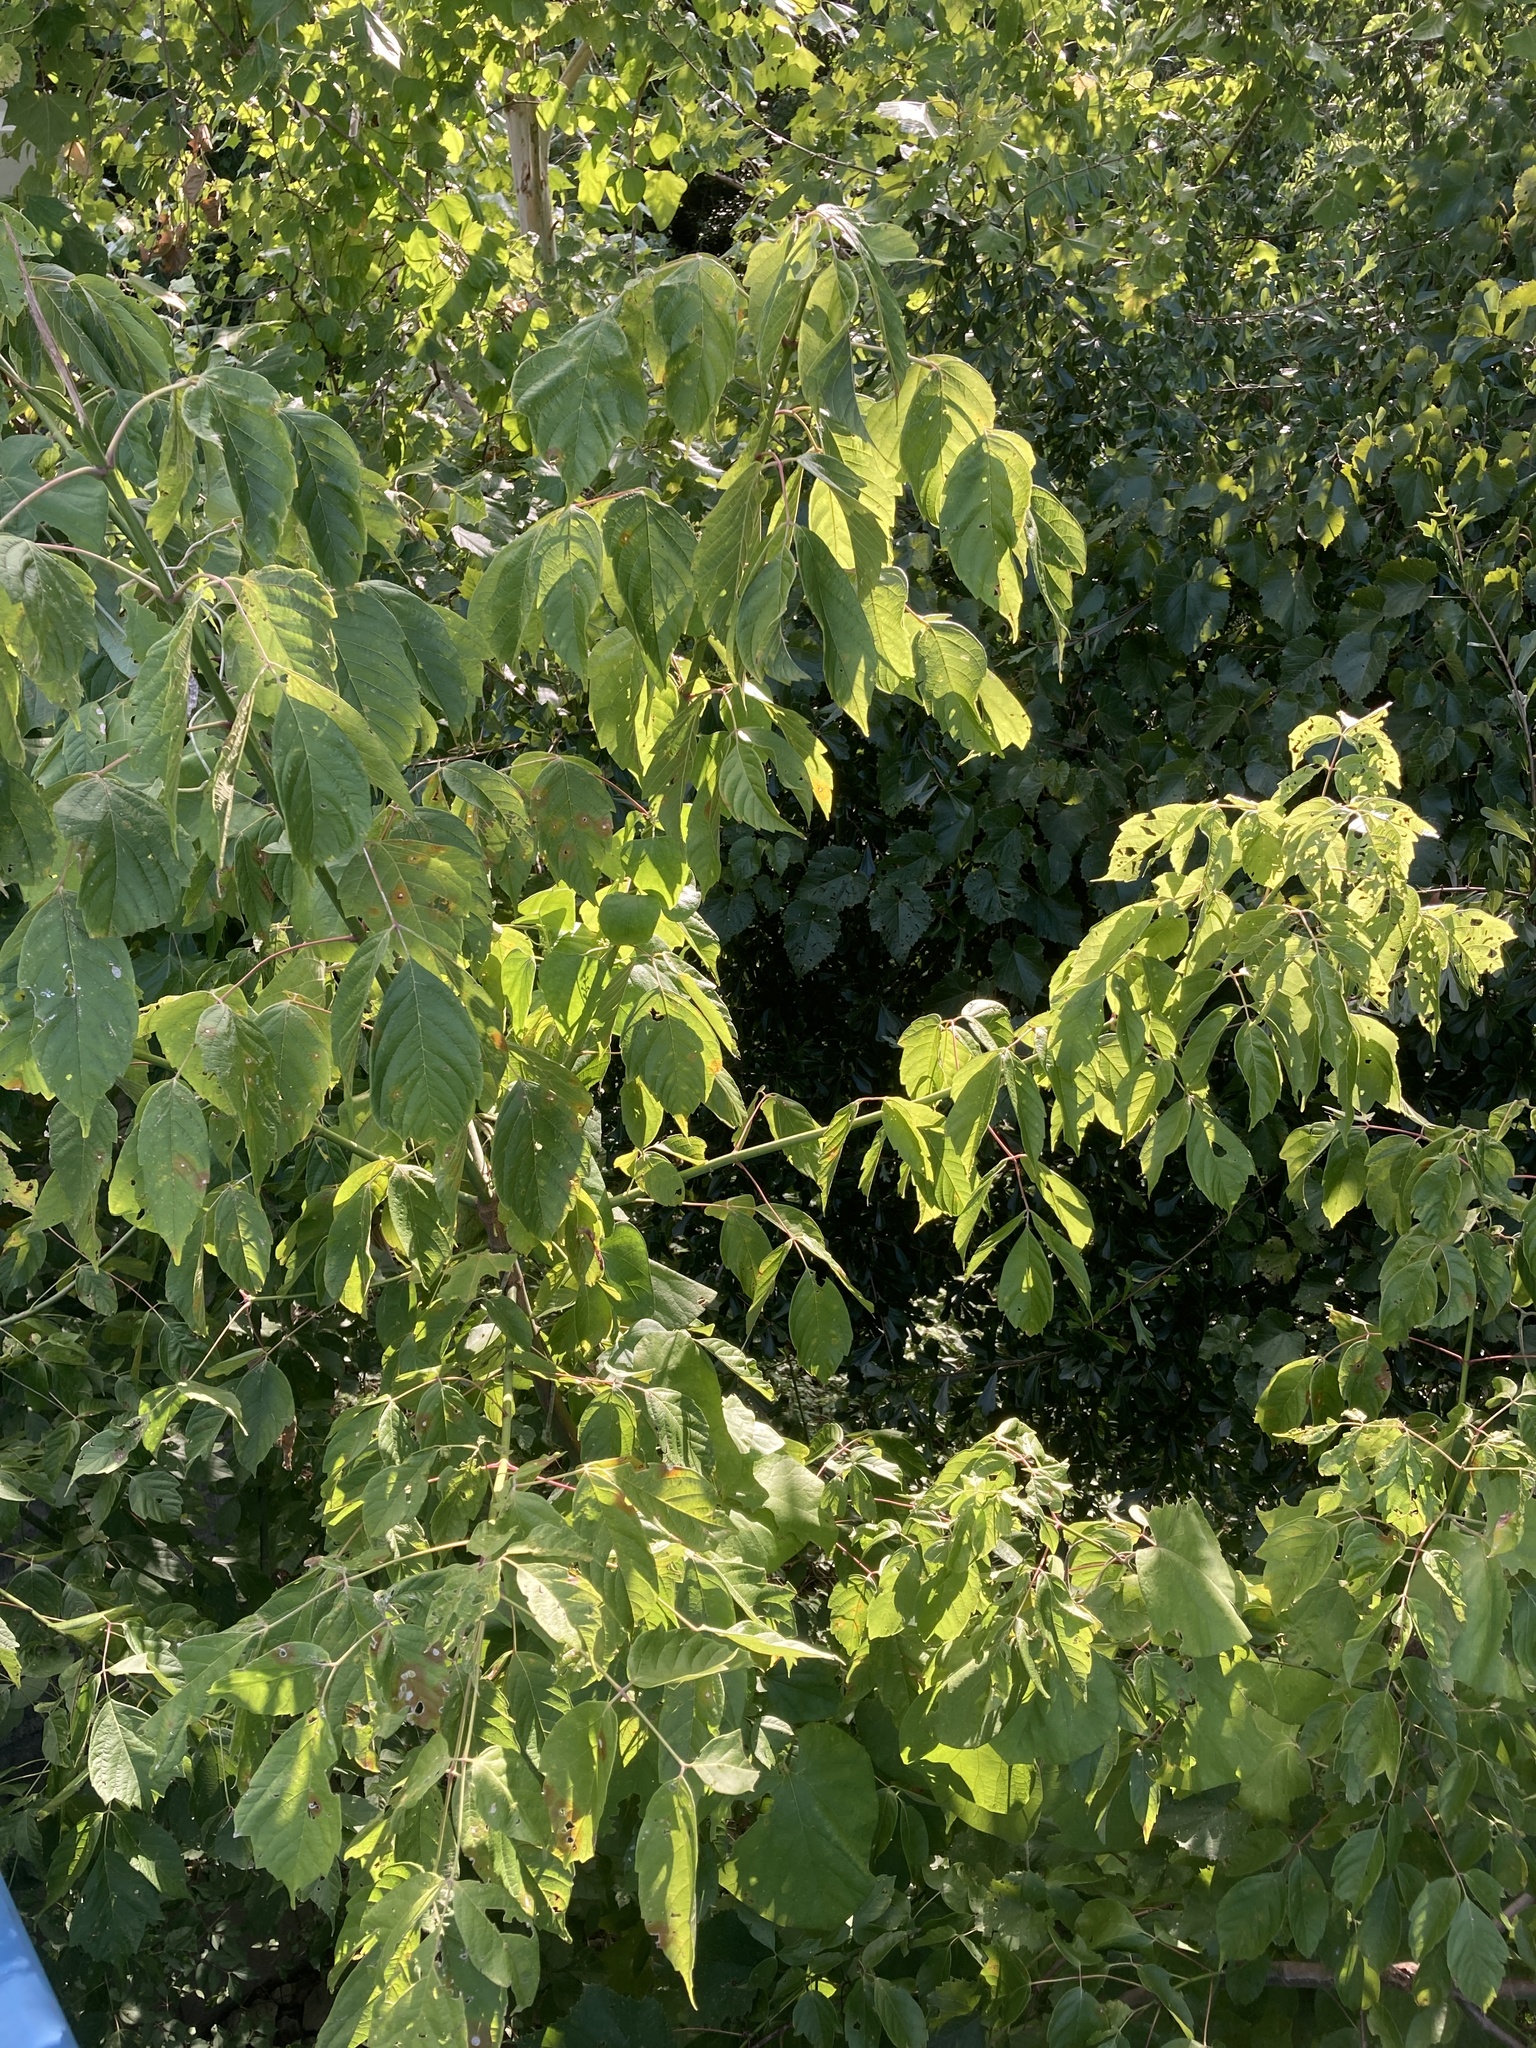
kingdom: Plantae
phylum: Tracheophyta
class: Magnoliopsida
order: Sapindales
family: Sapindaceae
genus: Acer
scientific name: Acer negundo
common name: Ashleaf maple
